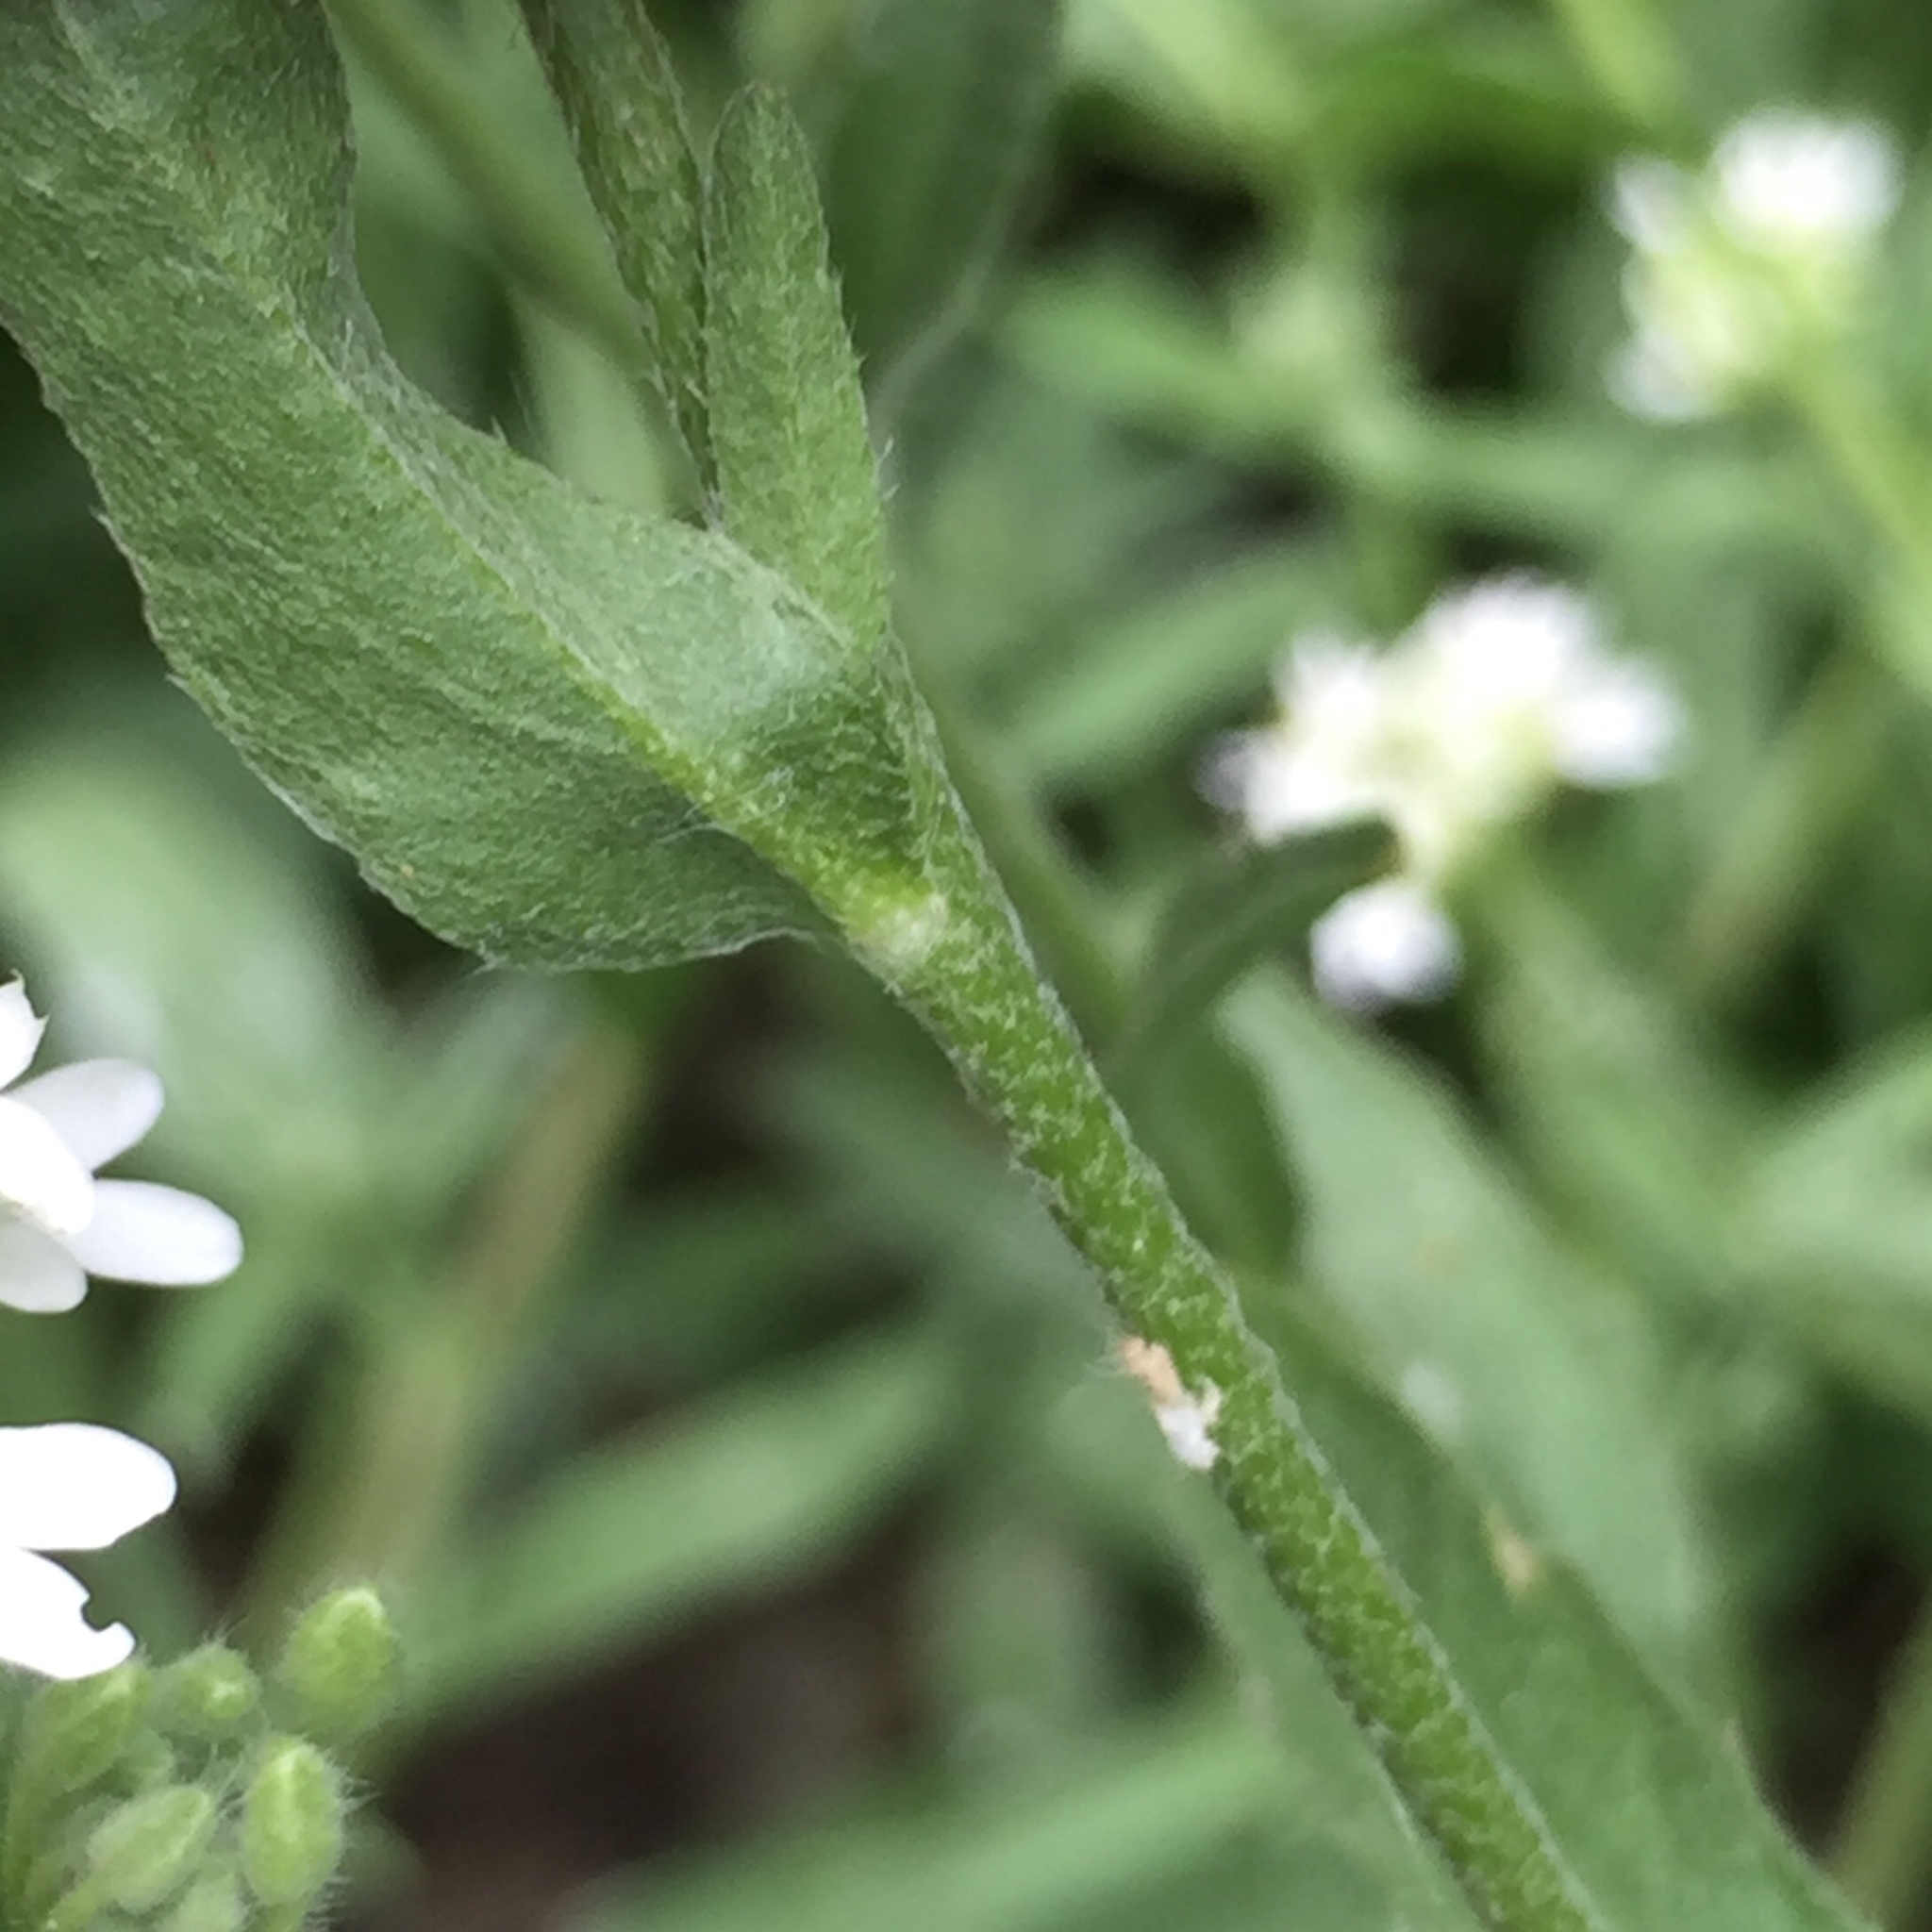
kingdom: Plantae
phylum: Tracheophyta
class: Magnoliopsida
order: Brassicales
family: Brassicaceae
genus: Berteroa
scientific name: Berteroa incana
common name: Hoary alison
